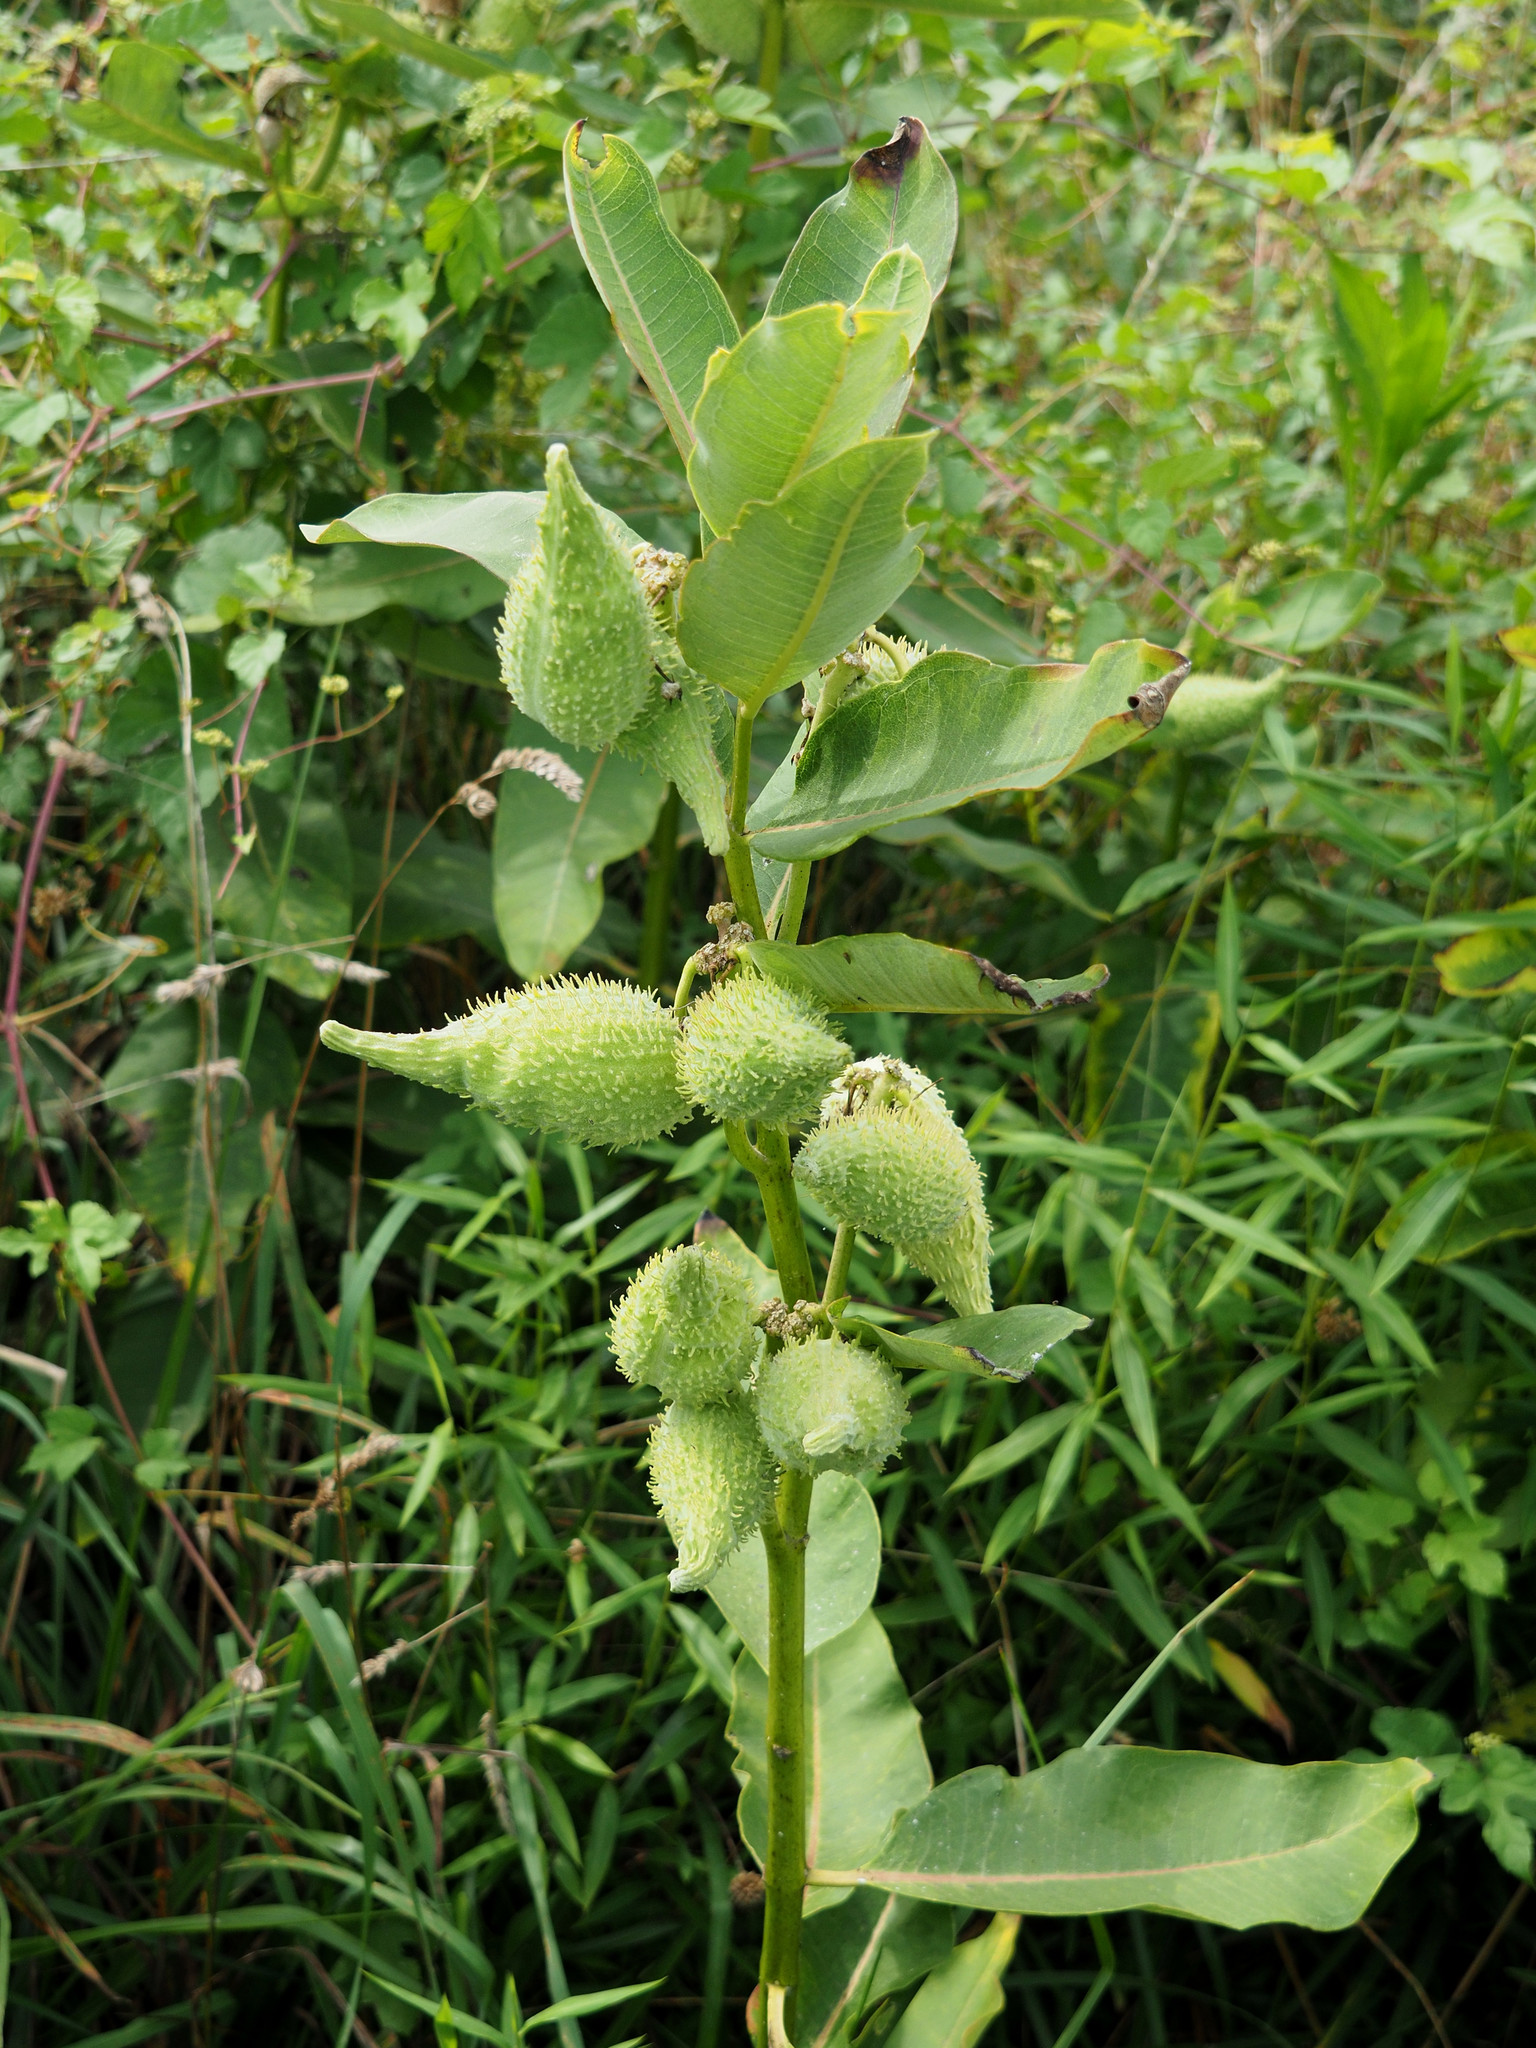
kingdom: Plantae
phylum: Tracheophyta
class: Magnoliopsida
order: Gentianales
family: Apocynaceae
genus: Asclepias
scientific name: Asclepias syriaca
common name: Common milkweed
